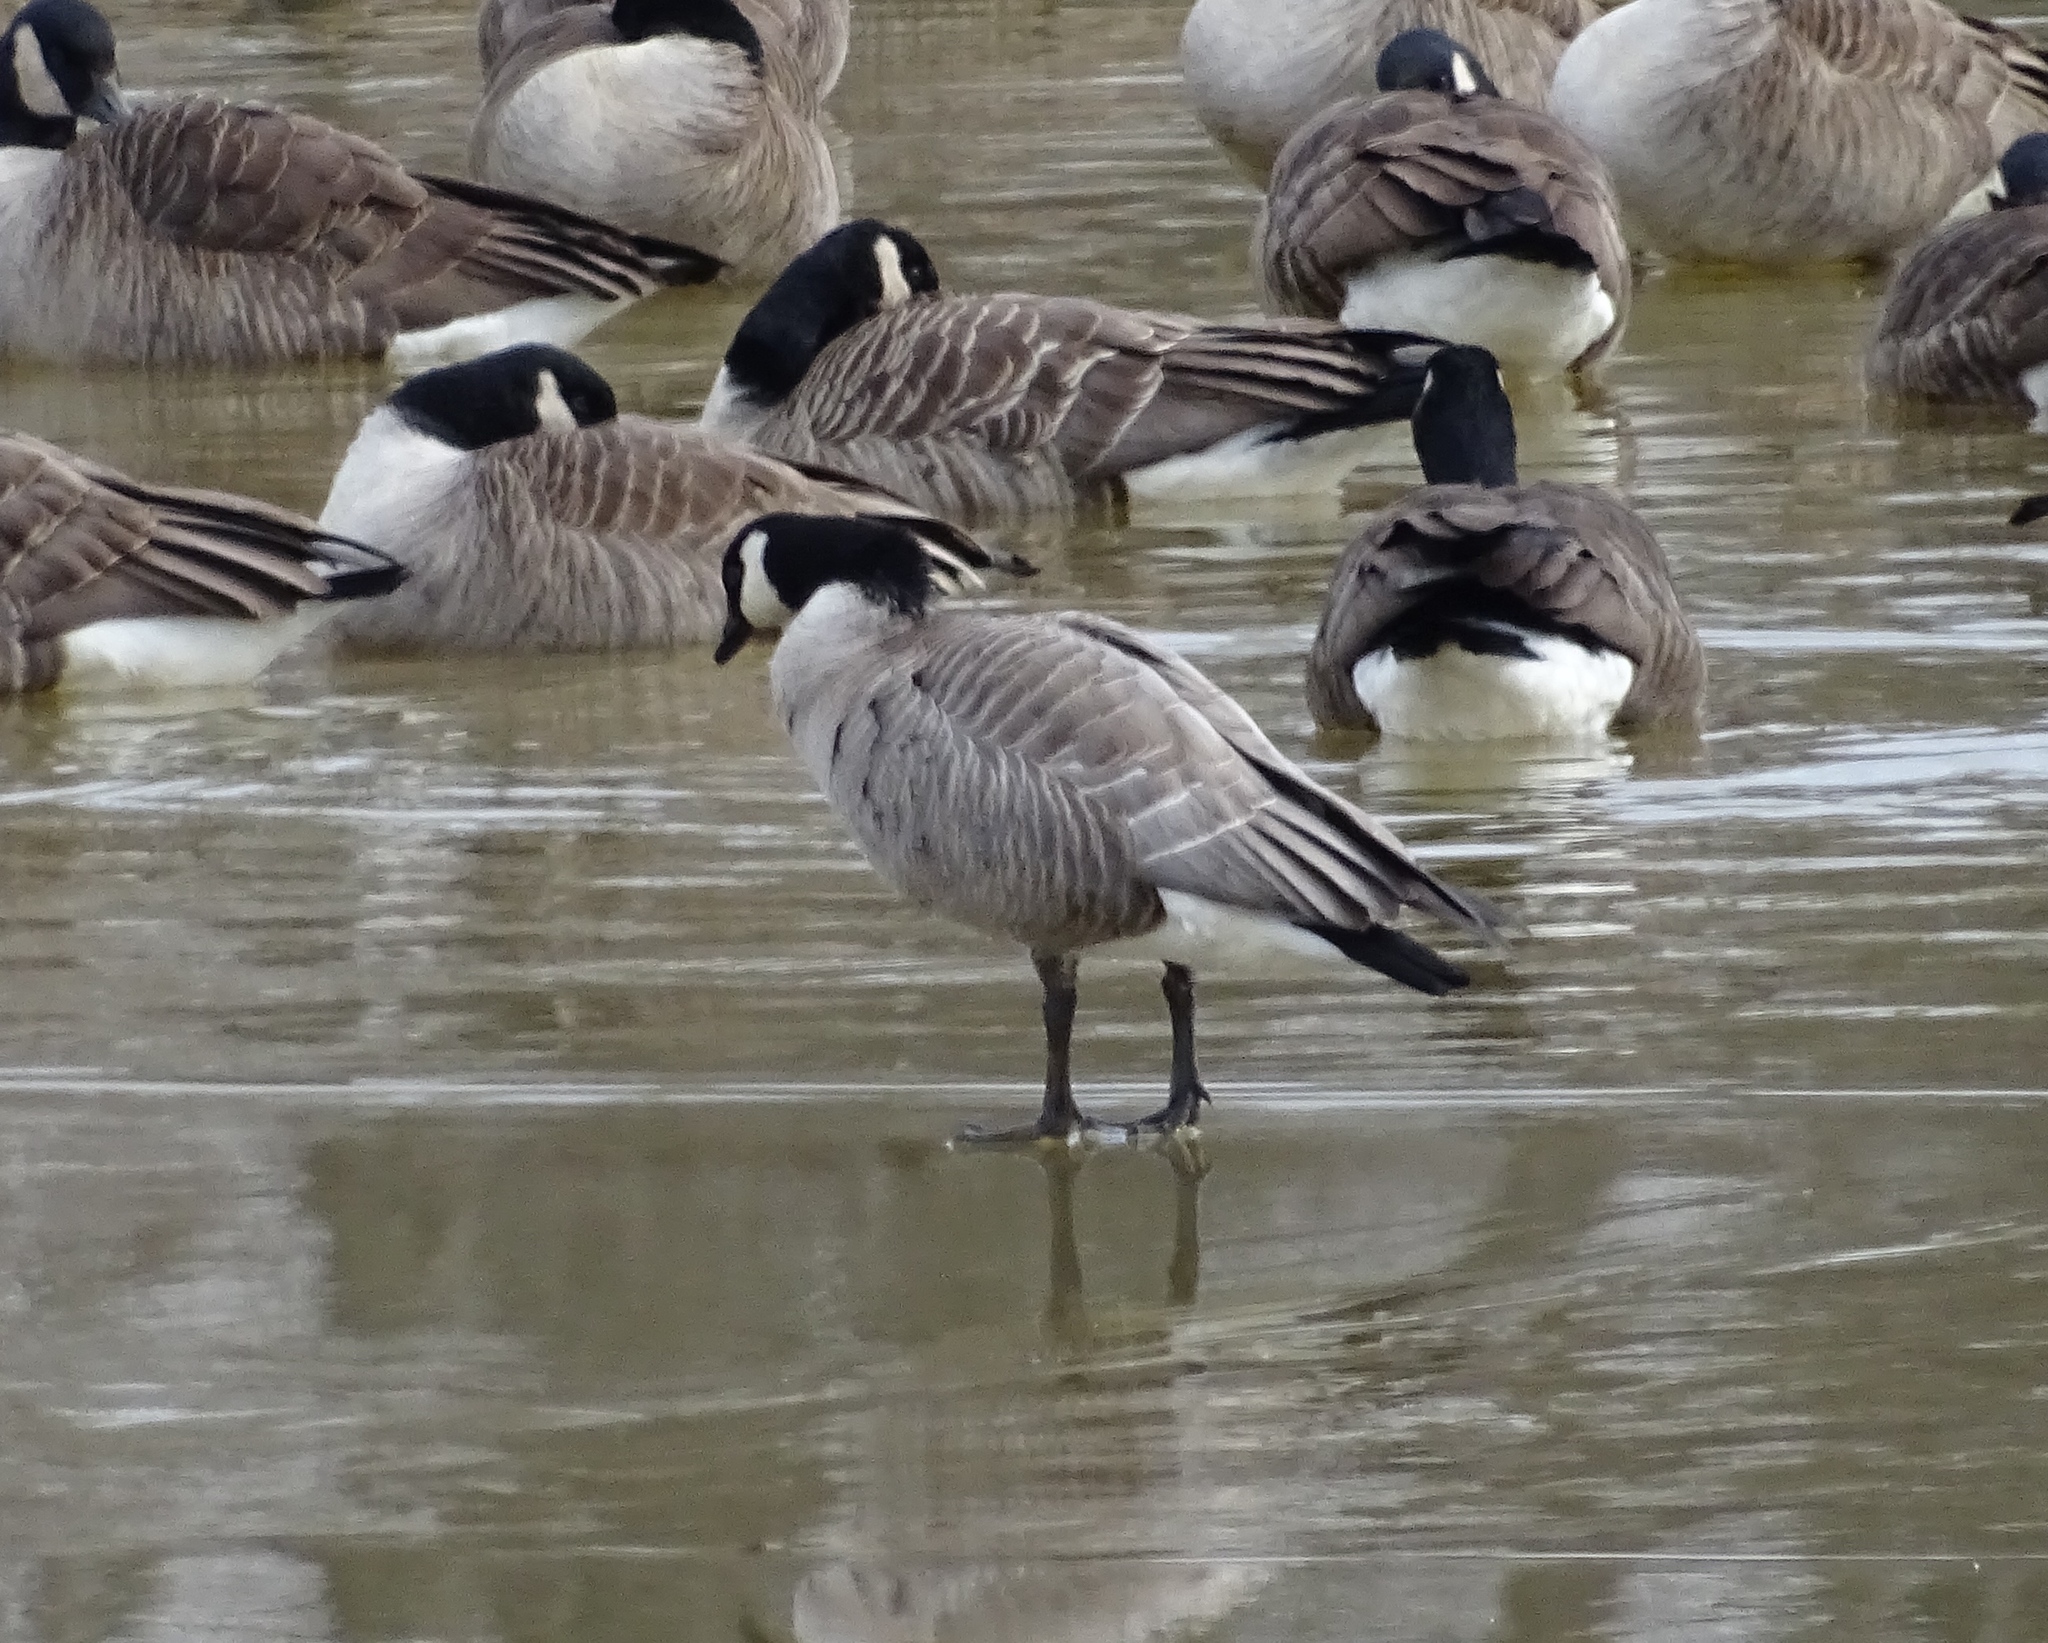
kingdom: Animalia
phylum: Chordata
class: Aves
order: Anseriformes
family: Anatidae
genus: Branta
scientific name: Branta hutchinsii
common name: Cackling goose
